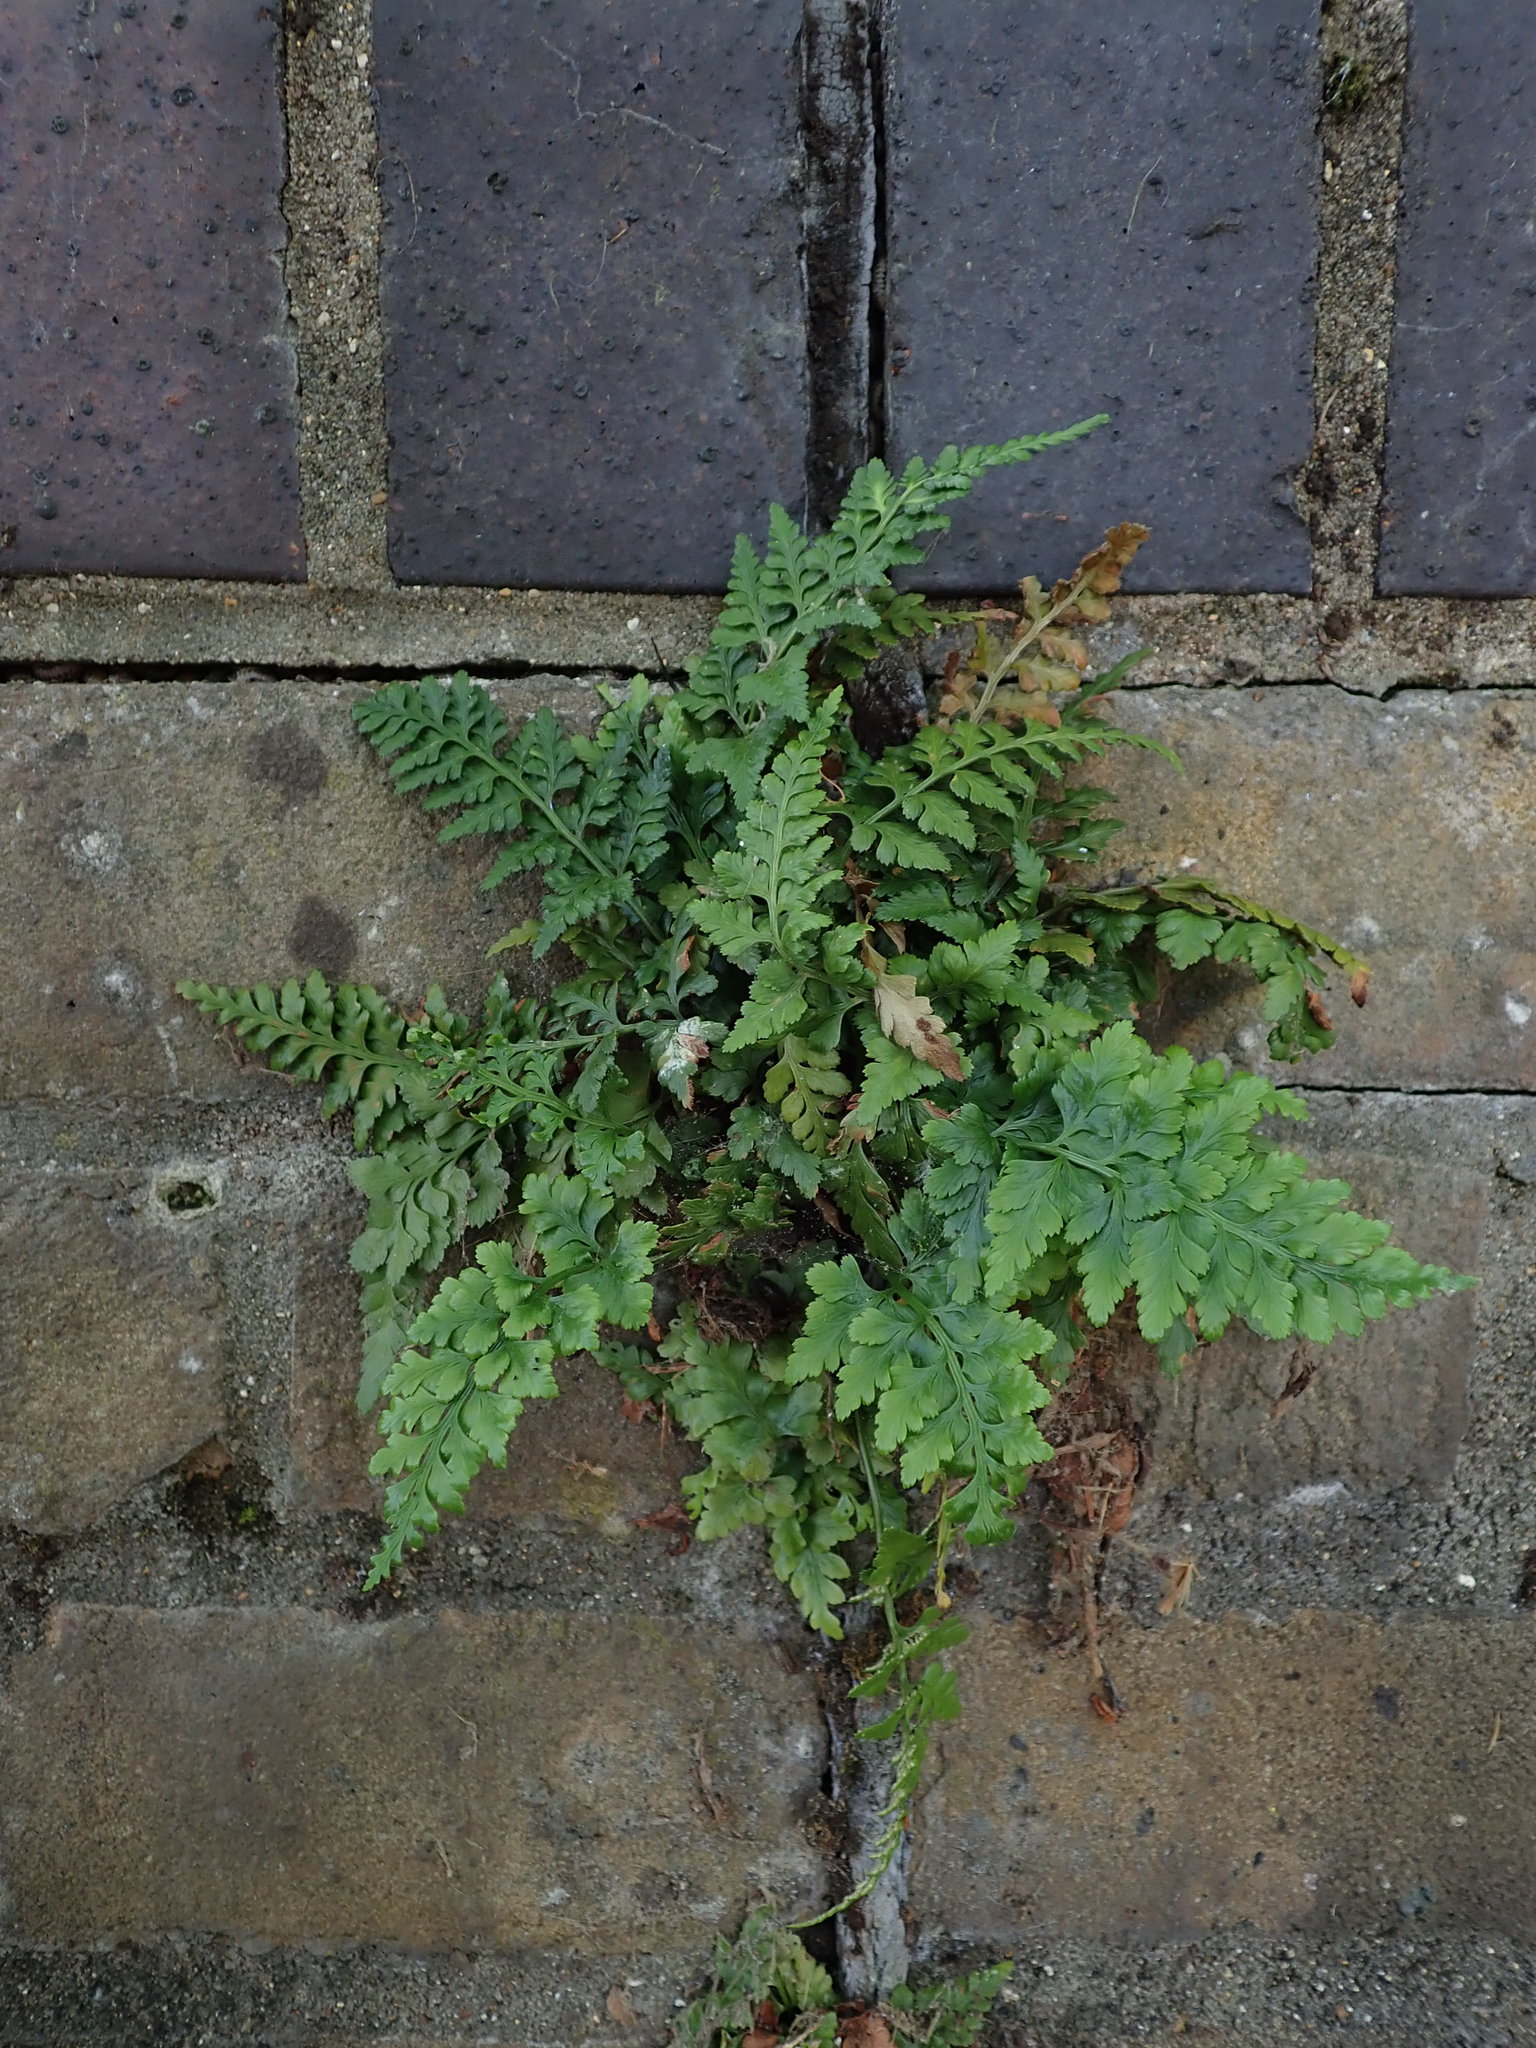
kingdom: Plantae
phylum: Tracheophyta
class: Polypodiopsida
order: Polypodiales
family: Aspleniaceae
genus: Asplenium
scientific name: Asplenium adiantum-nigrum
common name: Black spleenwort
